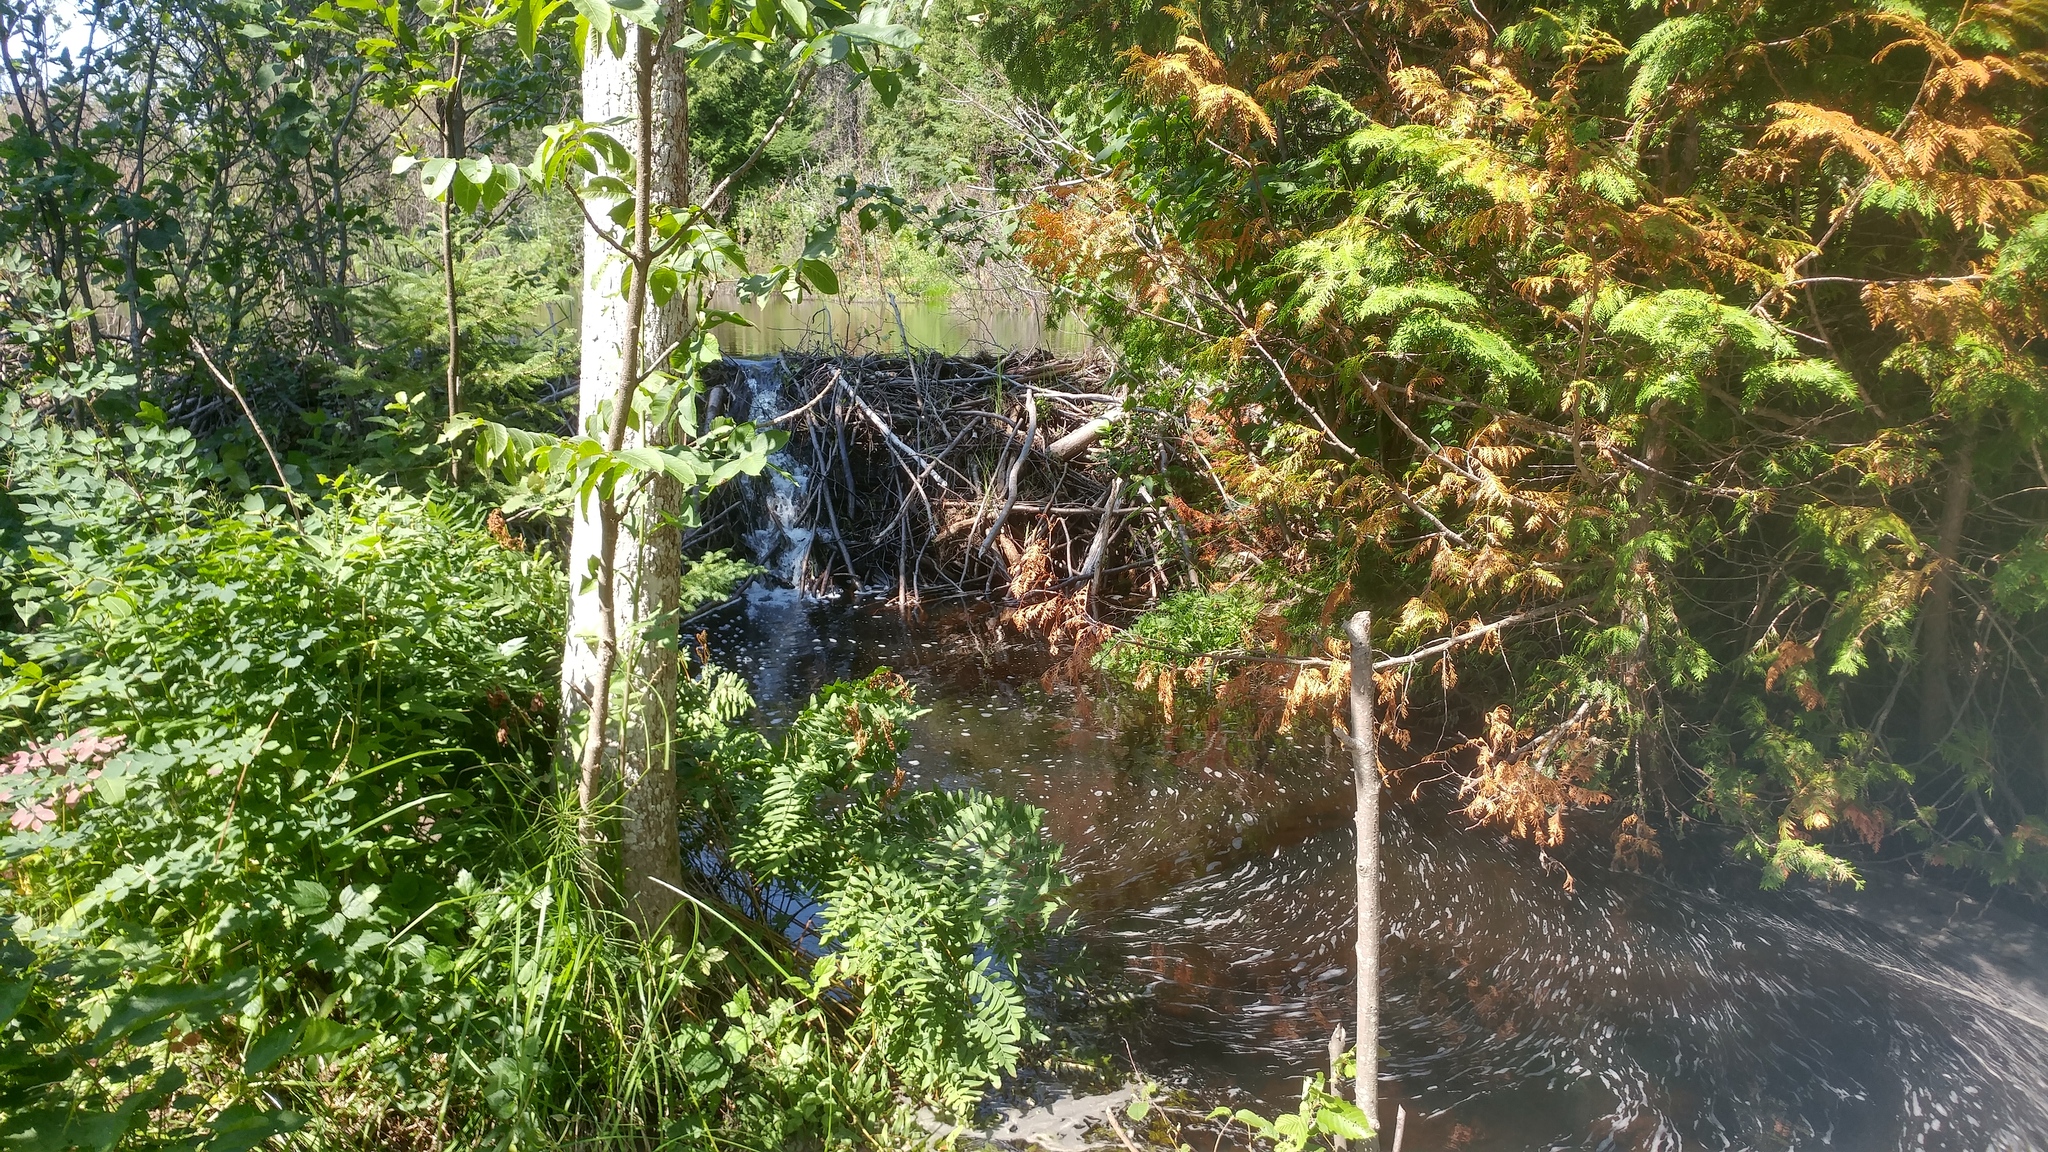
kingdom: Animalia
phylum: Chordata
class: Mammalia
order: Rodentia
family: Castoridae
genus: Castor
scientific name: Castor canadensis
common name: American beaver
